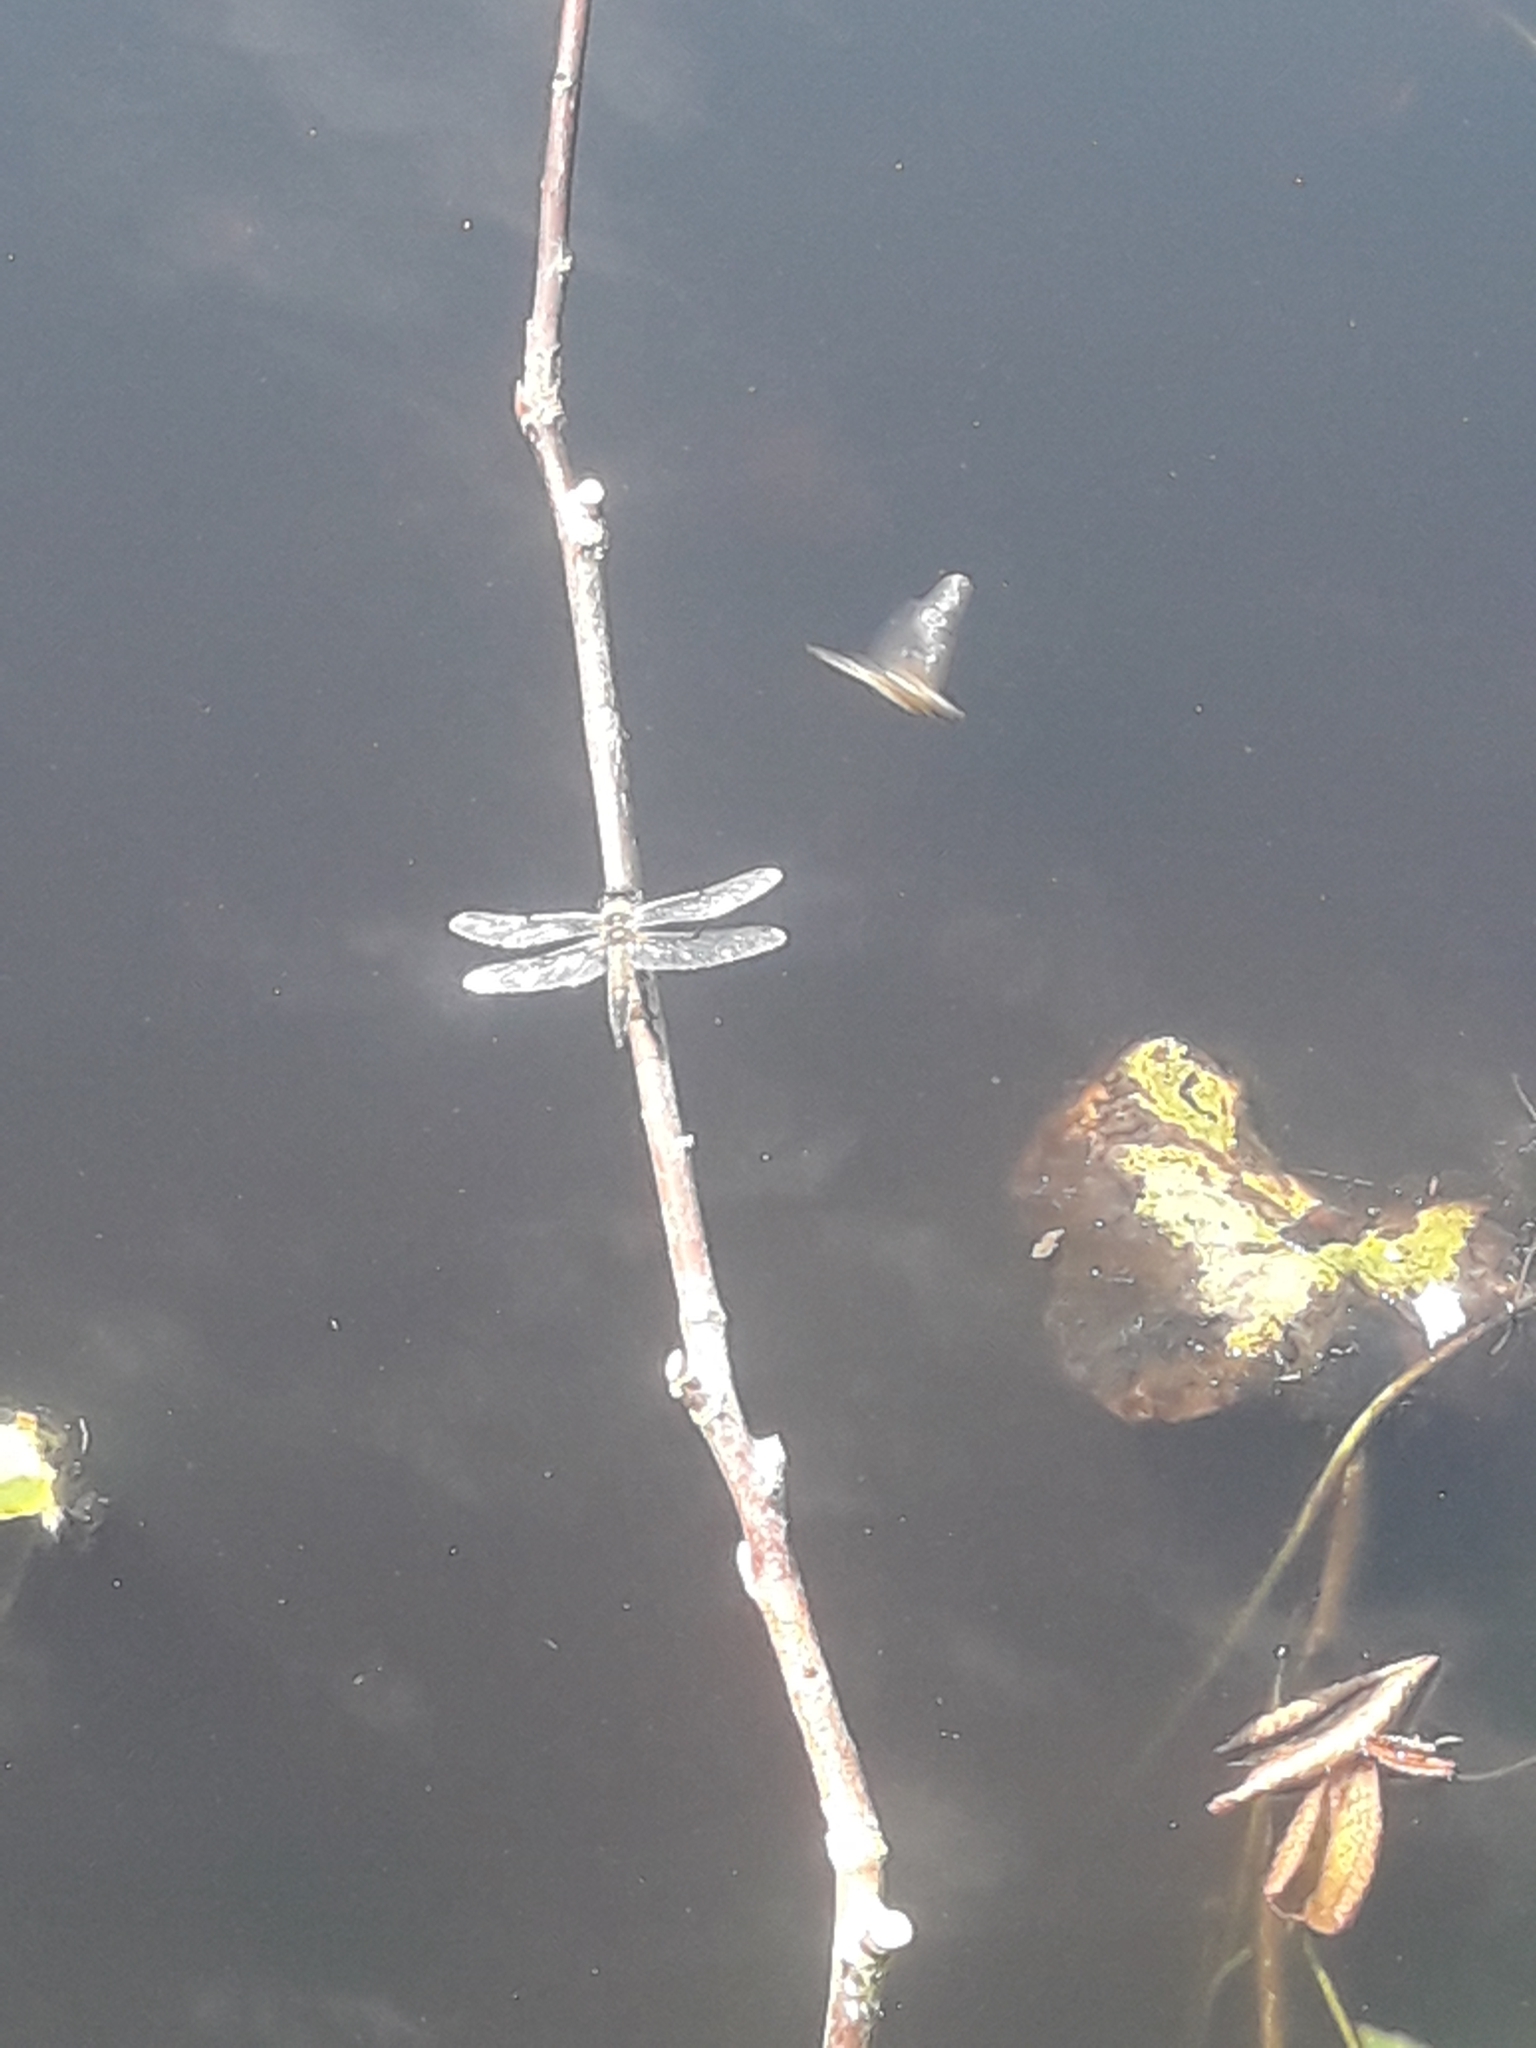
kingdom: Animalia
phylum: Arthropoda
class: Insecta
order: Odonata
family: Libellulidae
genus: Libellula
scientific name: Libellula quadrimaculata
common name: Four-spotted chaser
